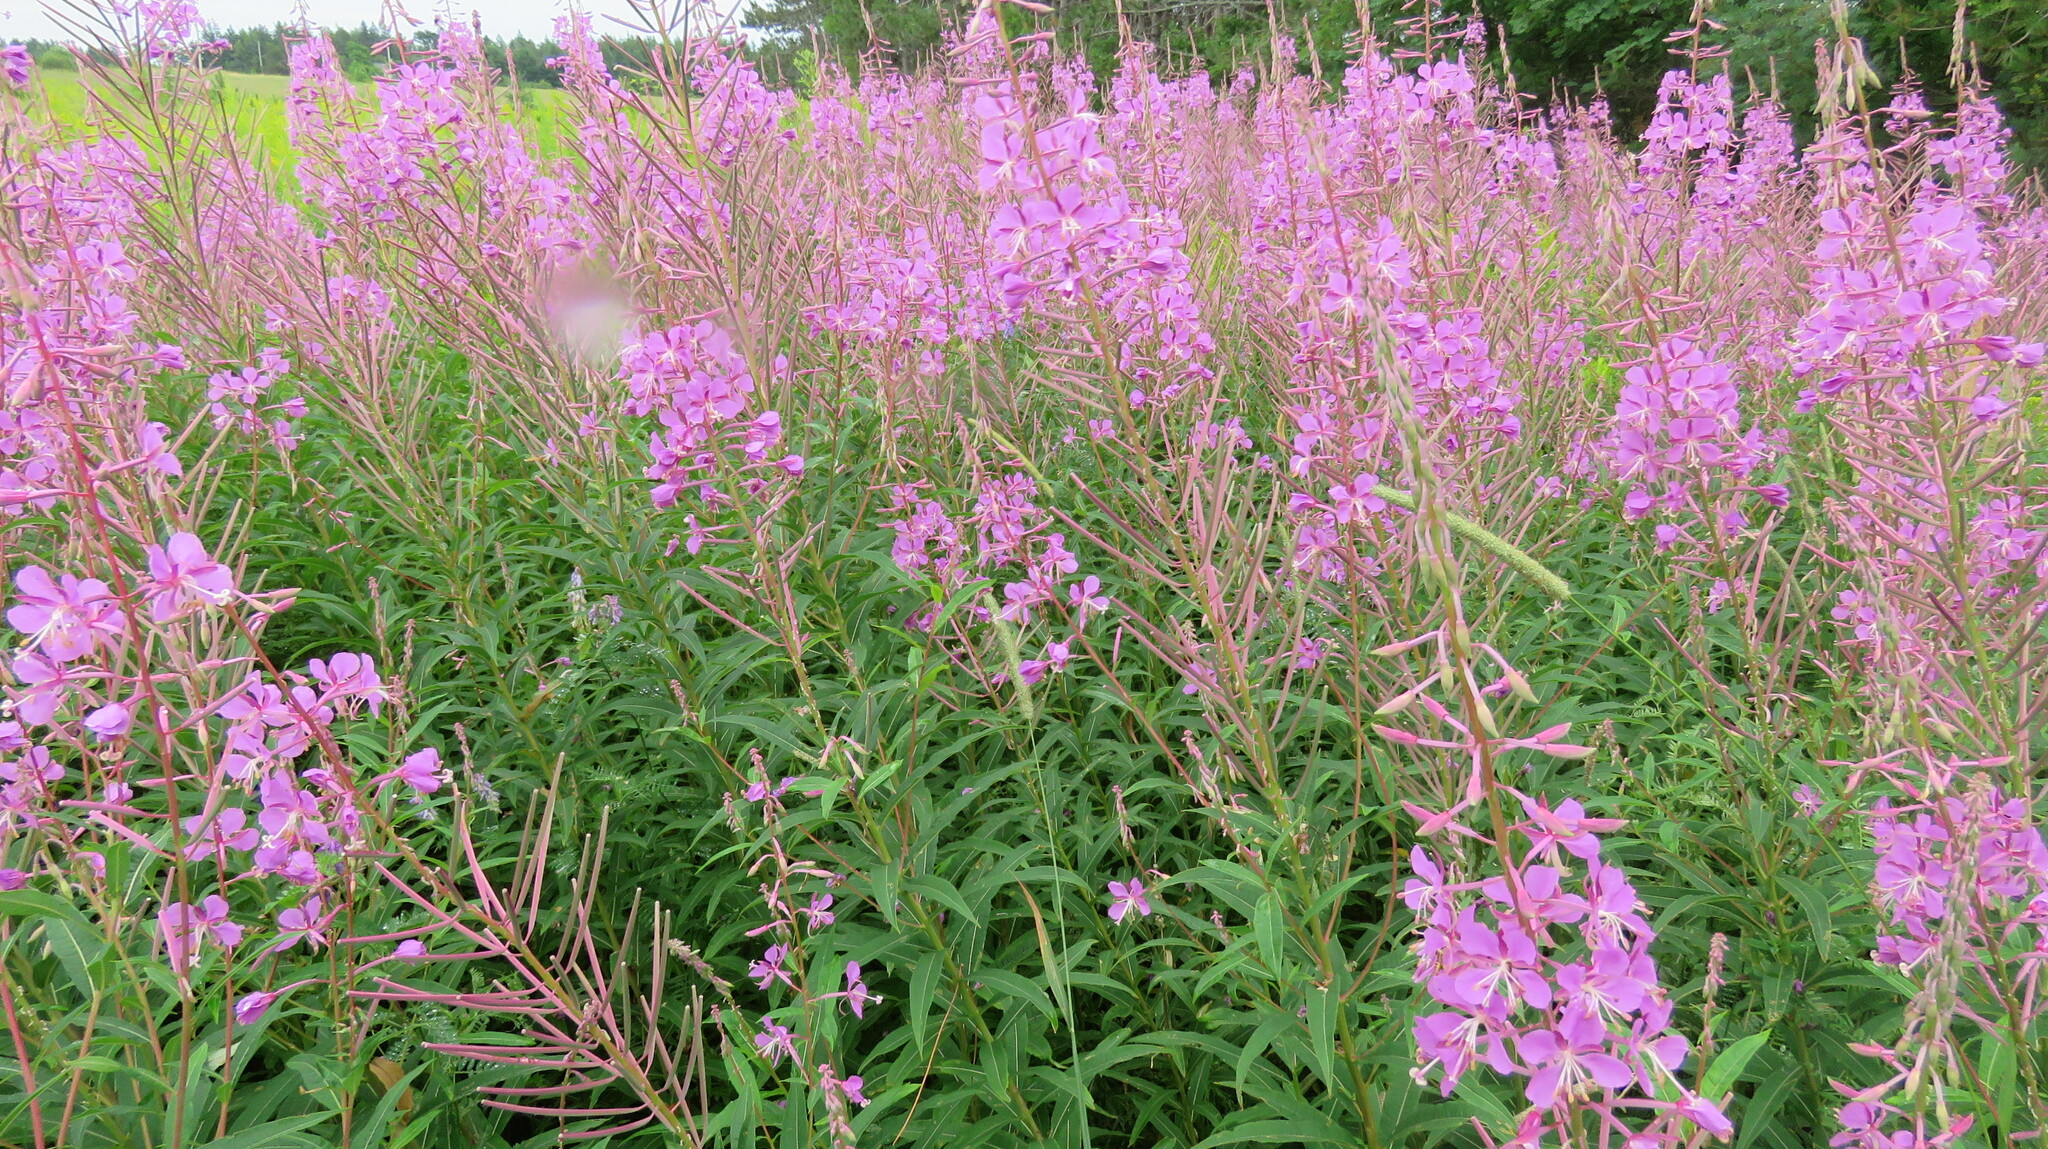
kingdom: Plantae
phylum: Tracheophyta
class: Magnoliopsida
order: Myrtales
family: Onagraceae
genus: Chamaenerion
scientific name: Chamaenerion angustifolium
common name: Fireweed
